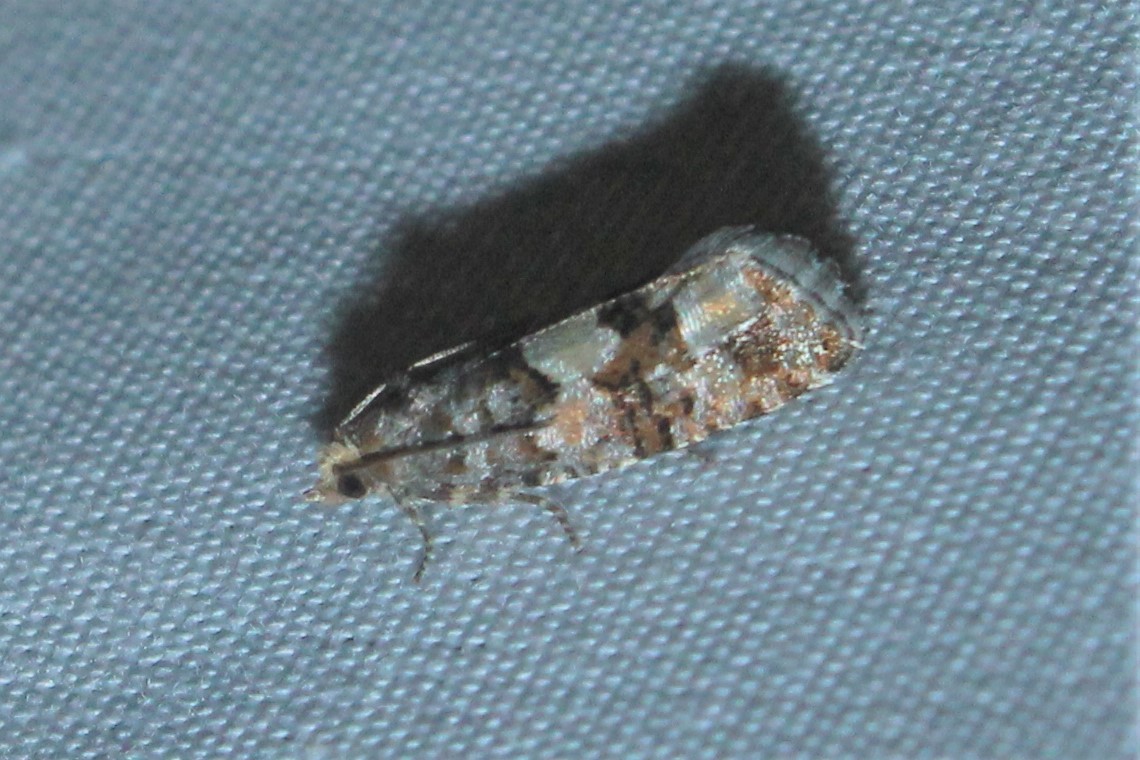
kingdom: Animalia
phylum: Arthropoda
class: Insecta
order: Lepidoptera
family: Tortricidae
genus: Eucopina
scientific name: Eucopina tocullionana
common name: White pinecone borer moth
